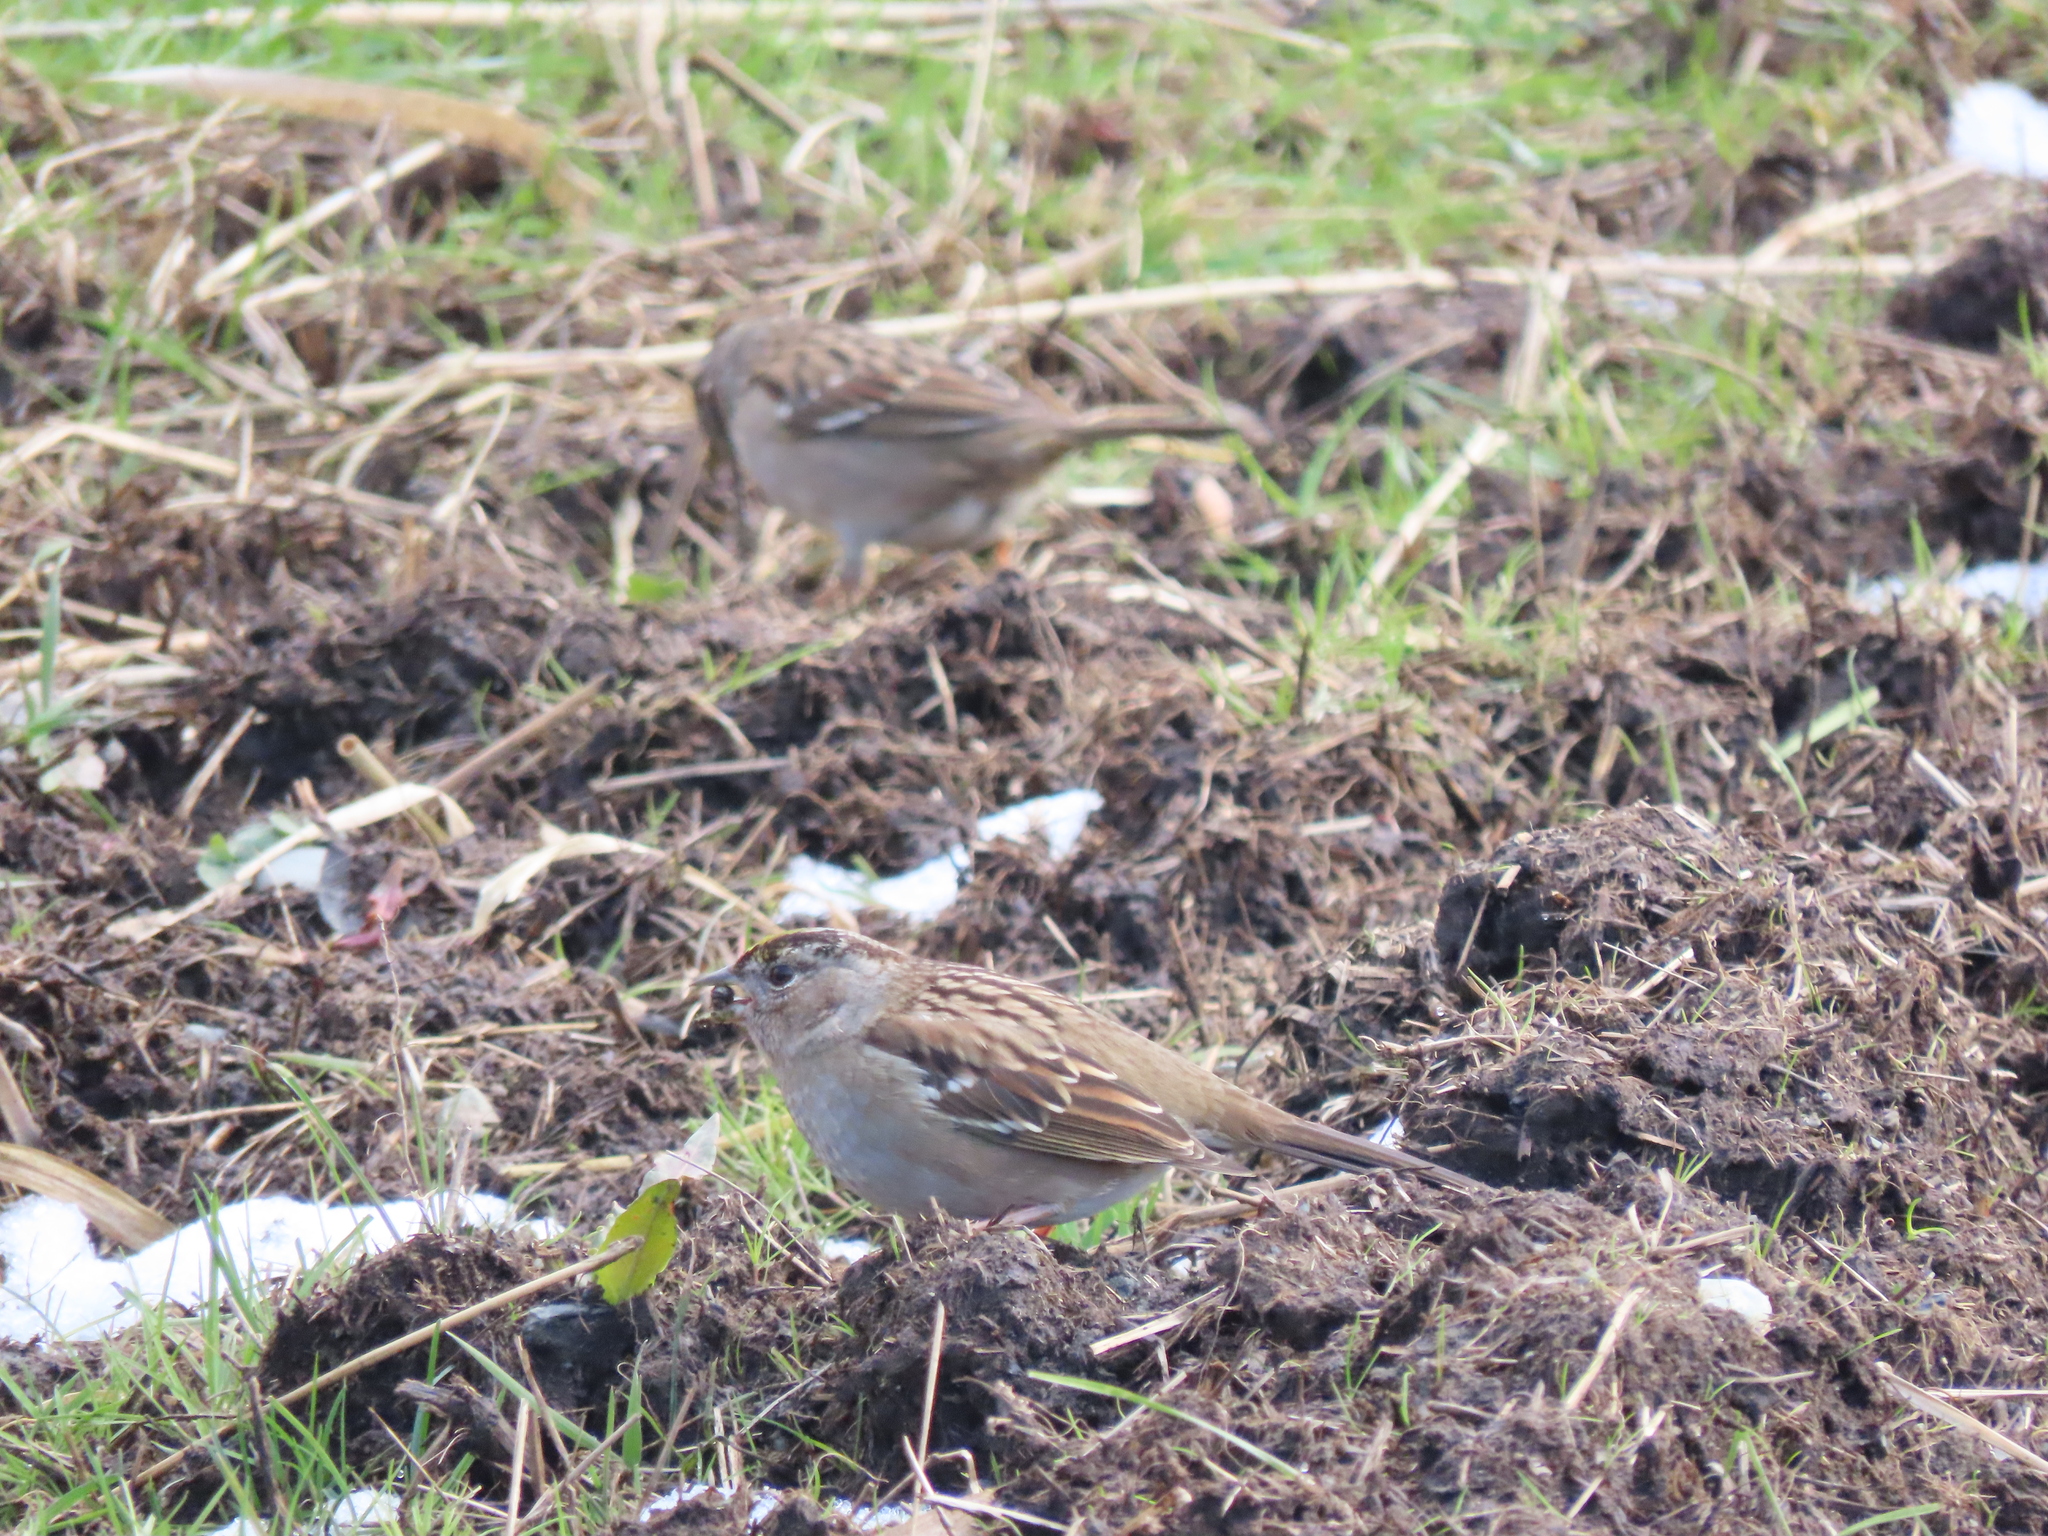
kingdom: Animalia
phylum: Chordata
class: Aves
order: Passeriformes
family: Passerellidae
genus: Zonotrichia
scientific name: Zonotrichia atricapilla
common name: Golden-crowned sparrow
